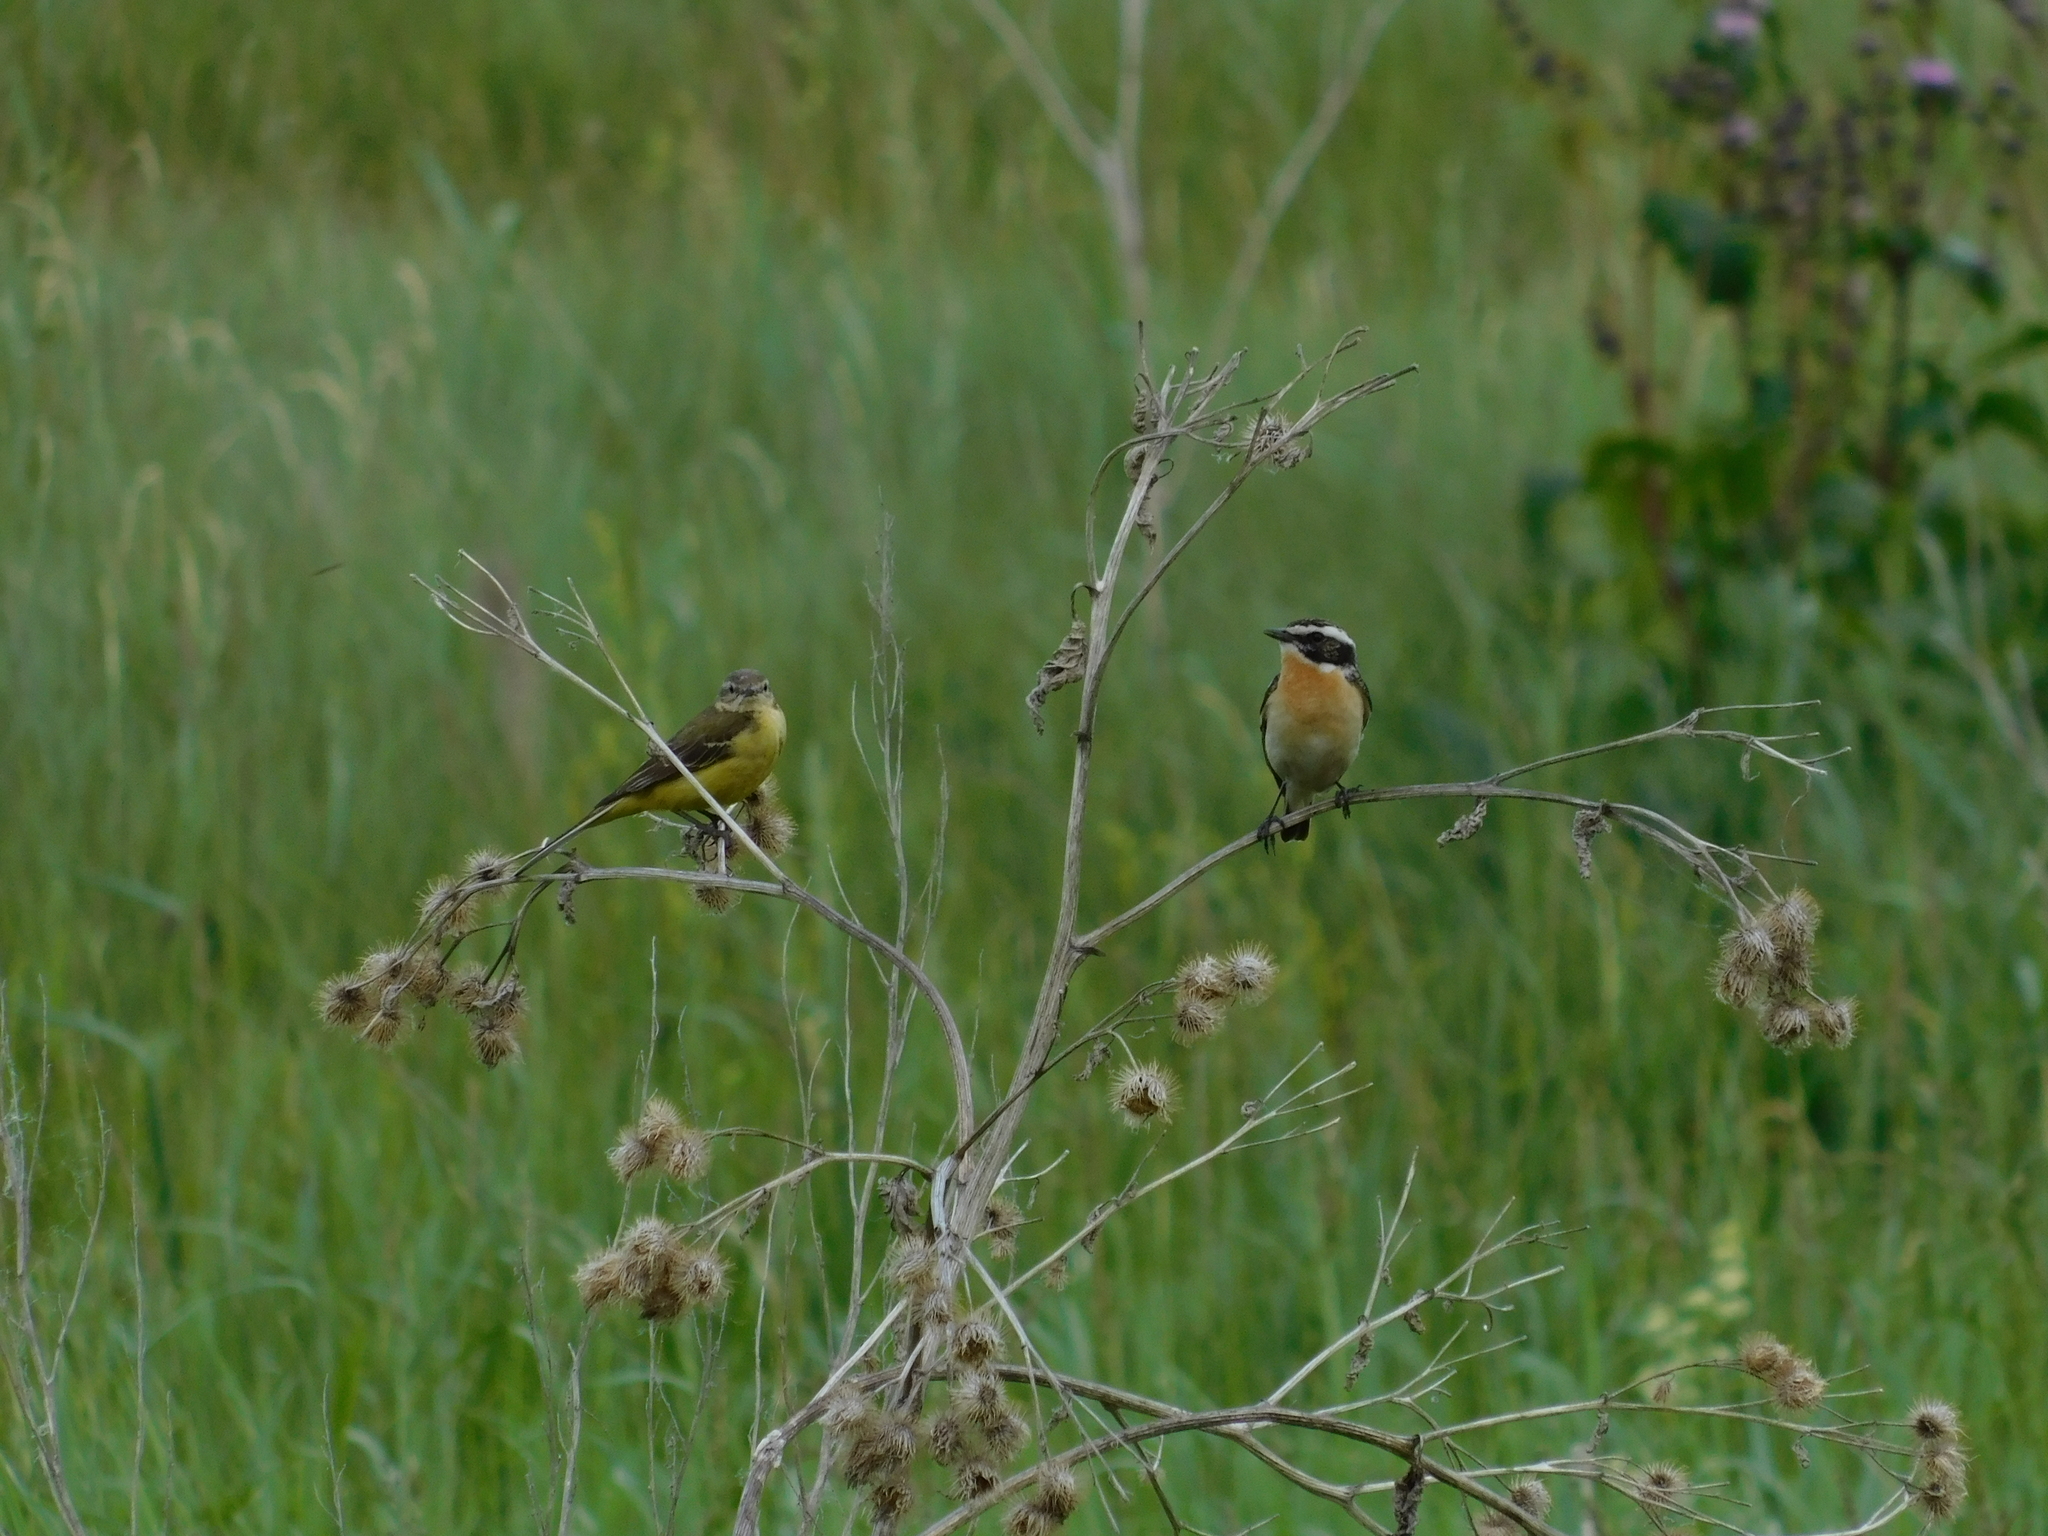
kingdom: Animalia
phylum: Chordata
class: Aves
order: Passeriformes
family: Motacillidae
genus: Motacilla
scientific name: Motacilla flava
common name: Western yellow wagtail
